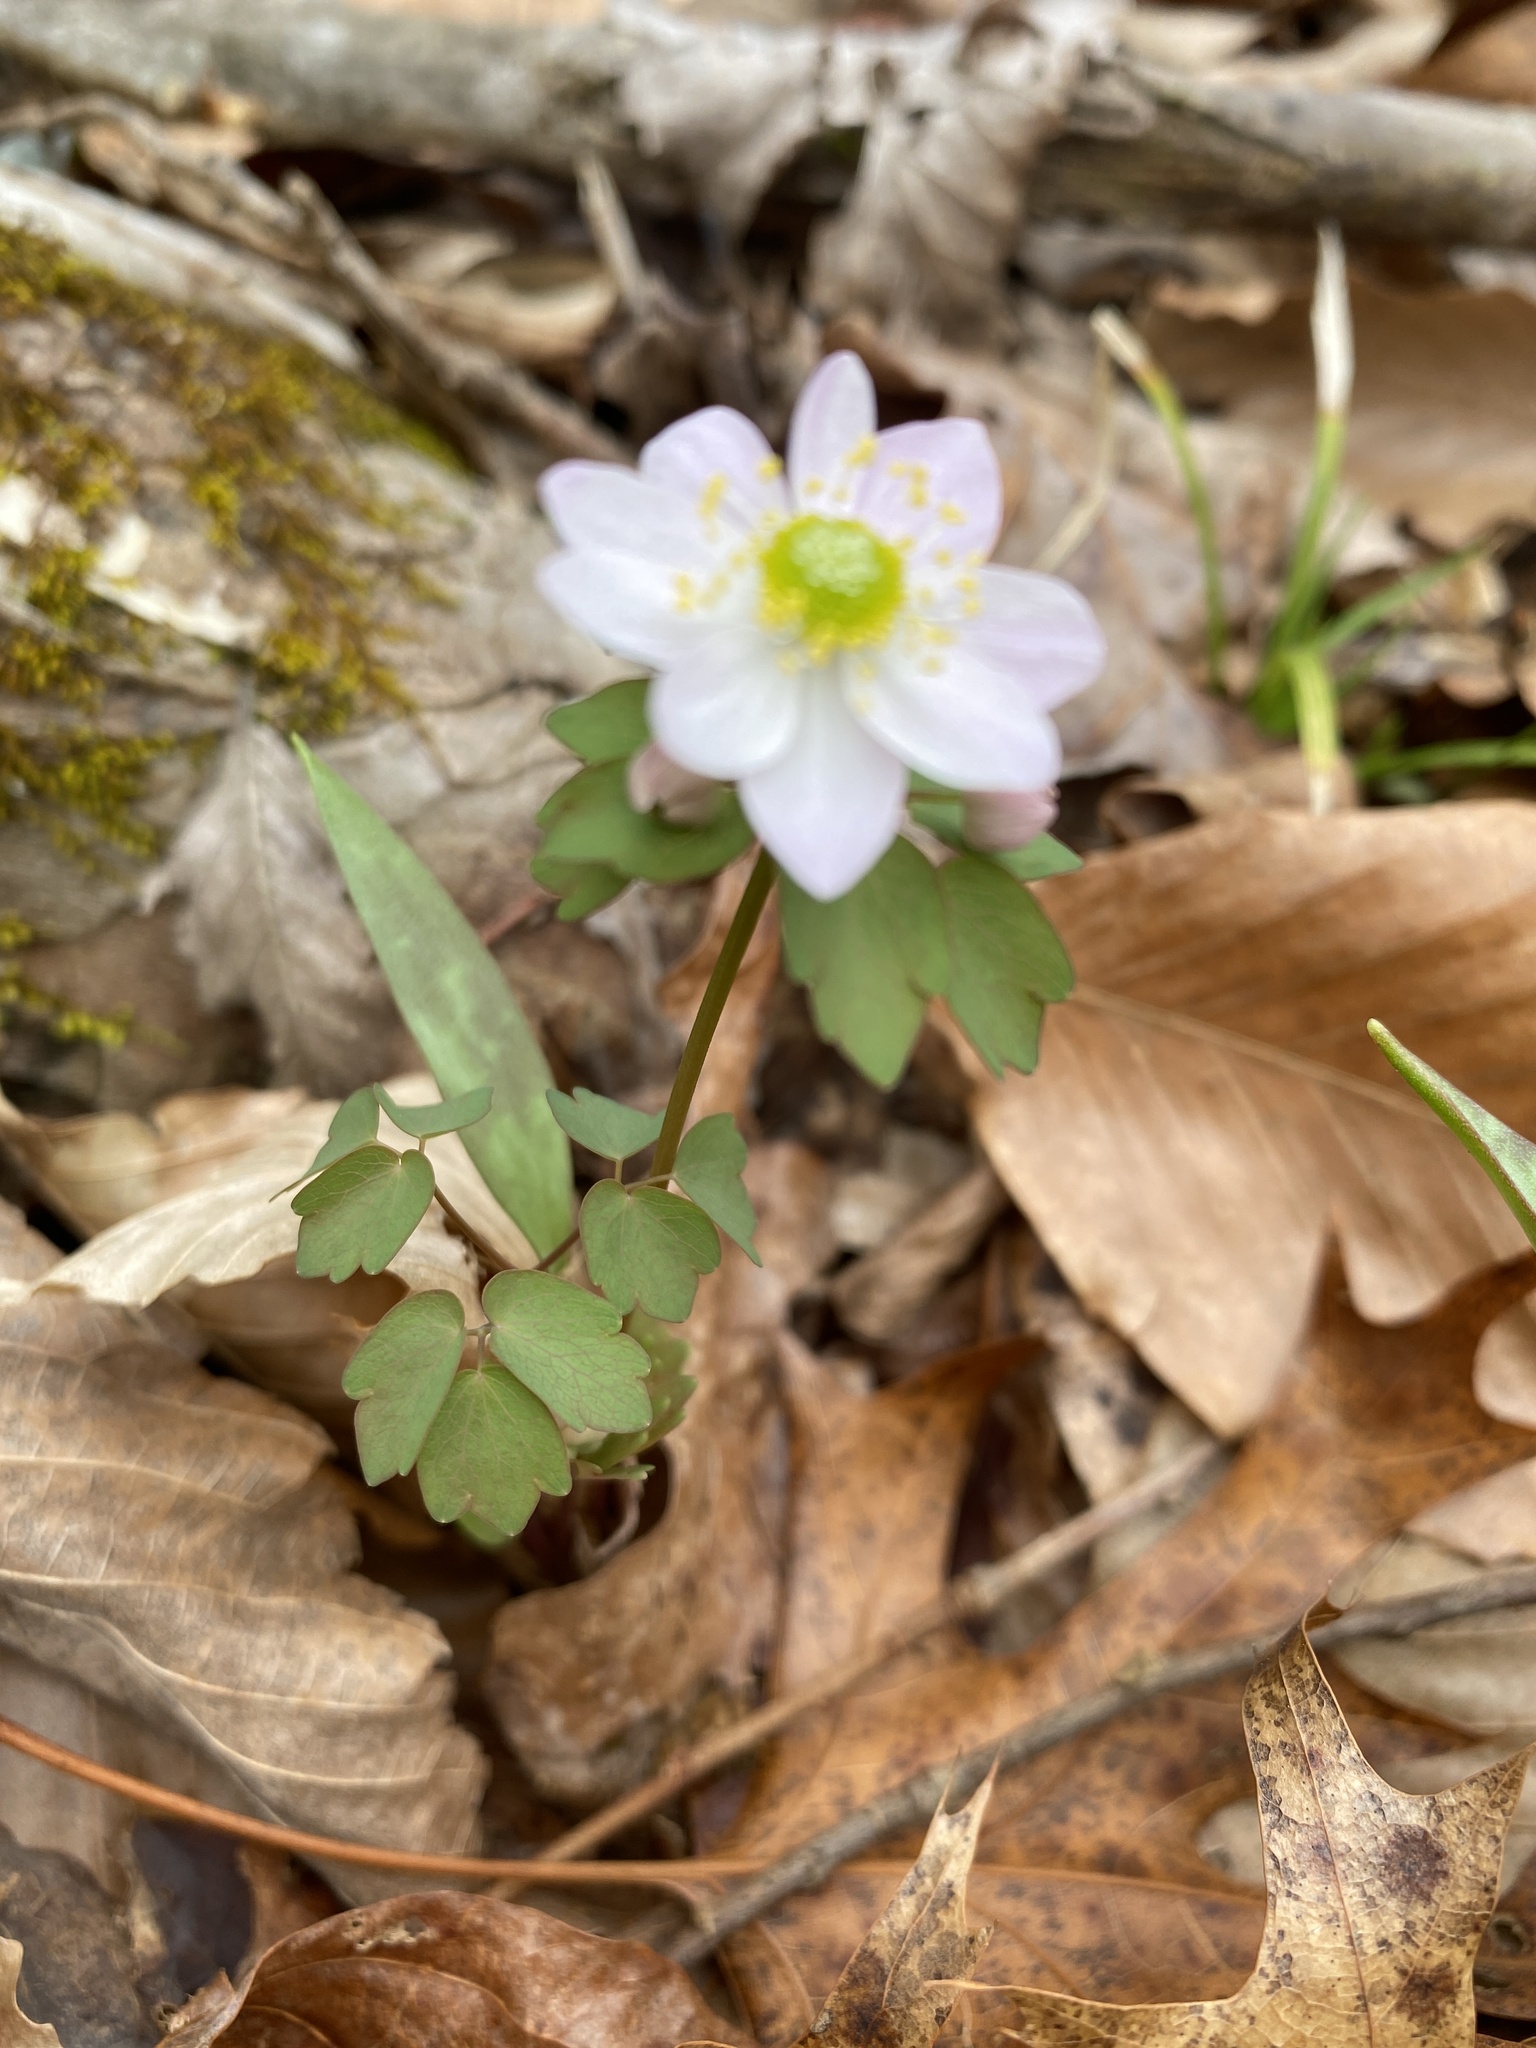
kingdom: Plantae
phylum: Tracheophyta
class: Magnoliopsida
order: Ranunculales
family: Ranunculaceae
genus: Thalictrum
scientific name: Thalictrum thalictroides
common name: Rue-anemone
